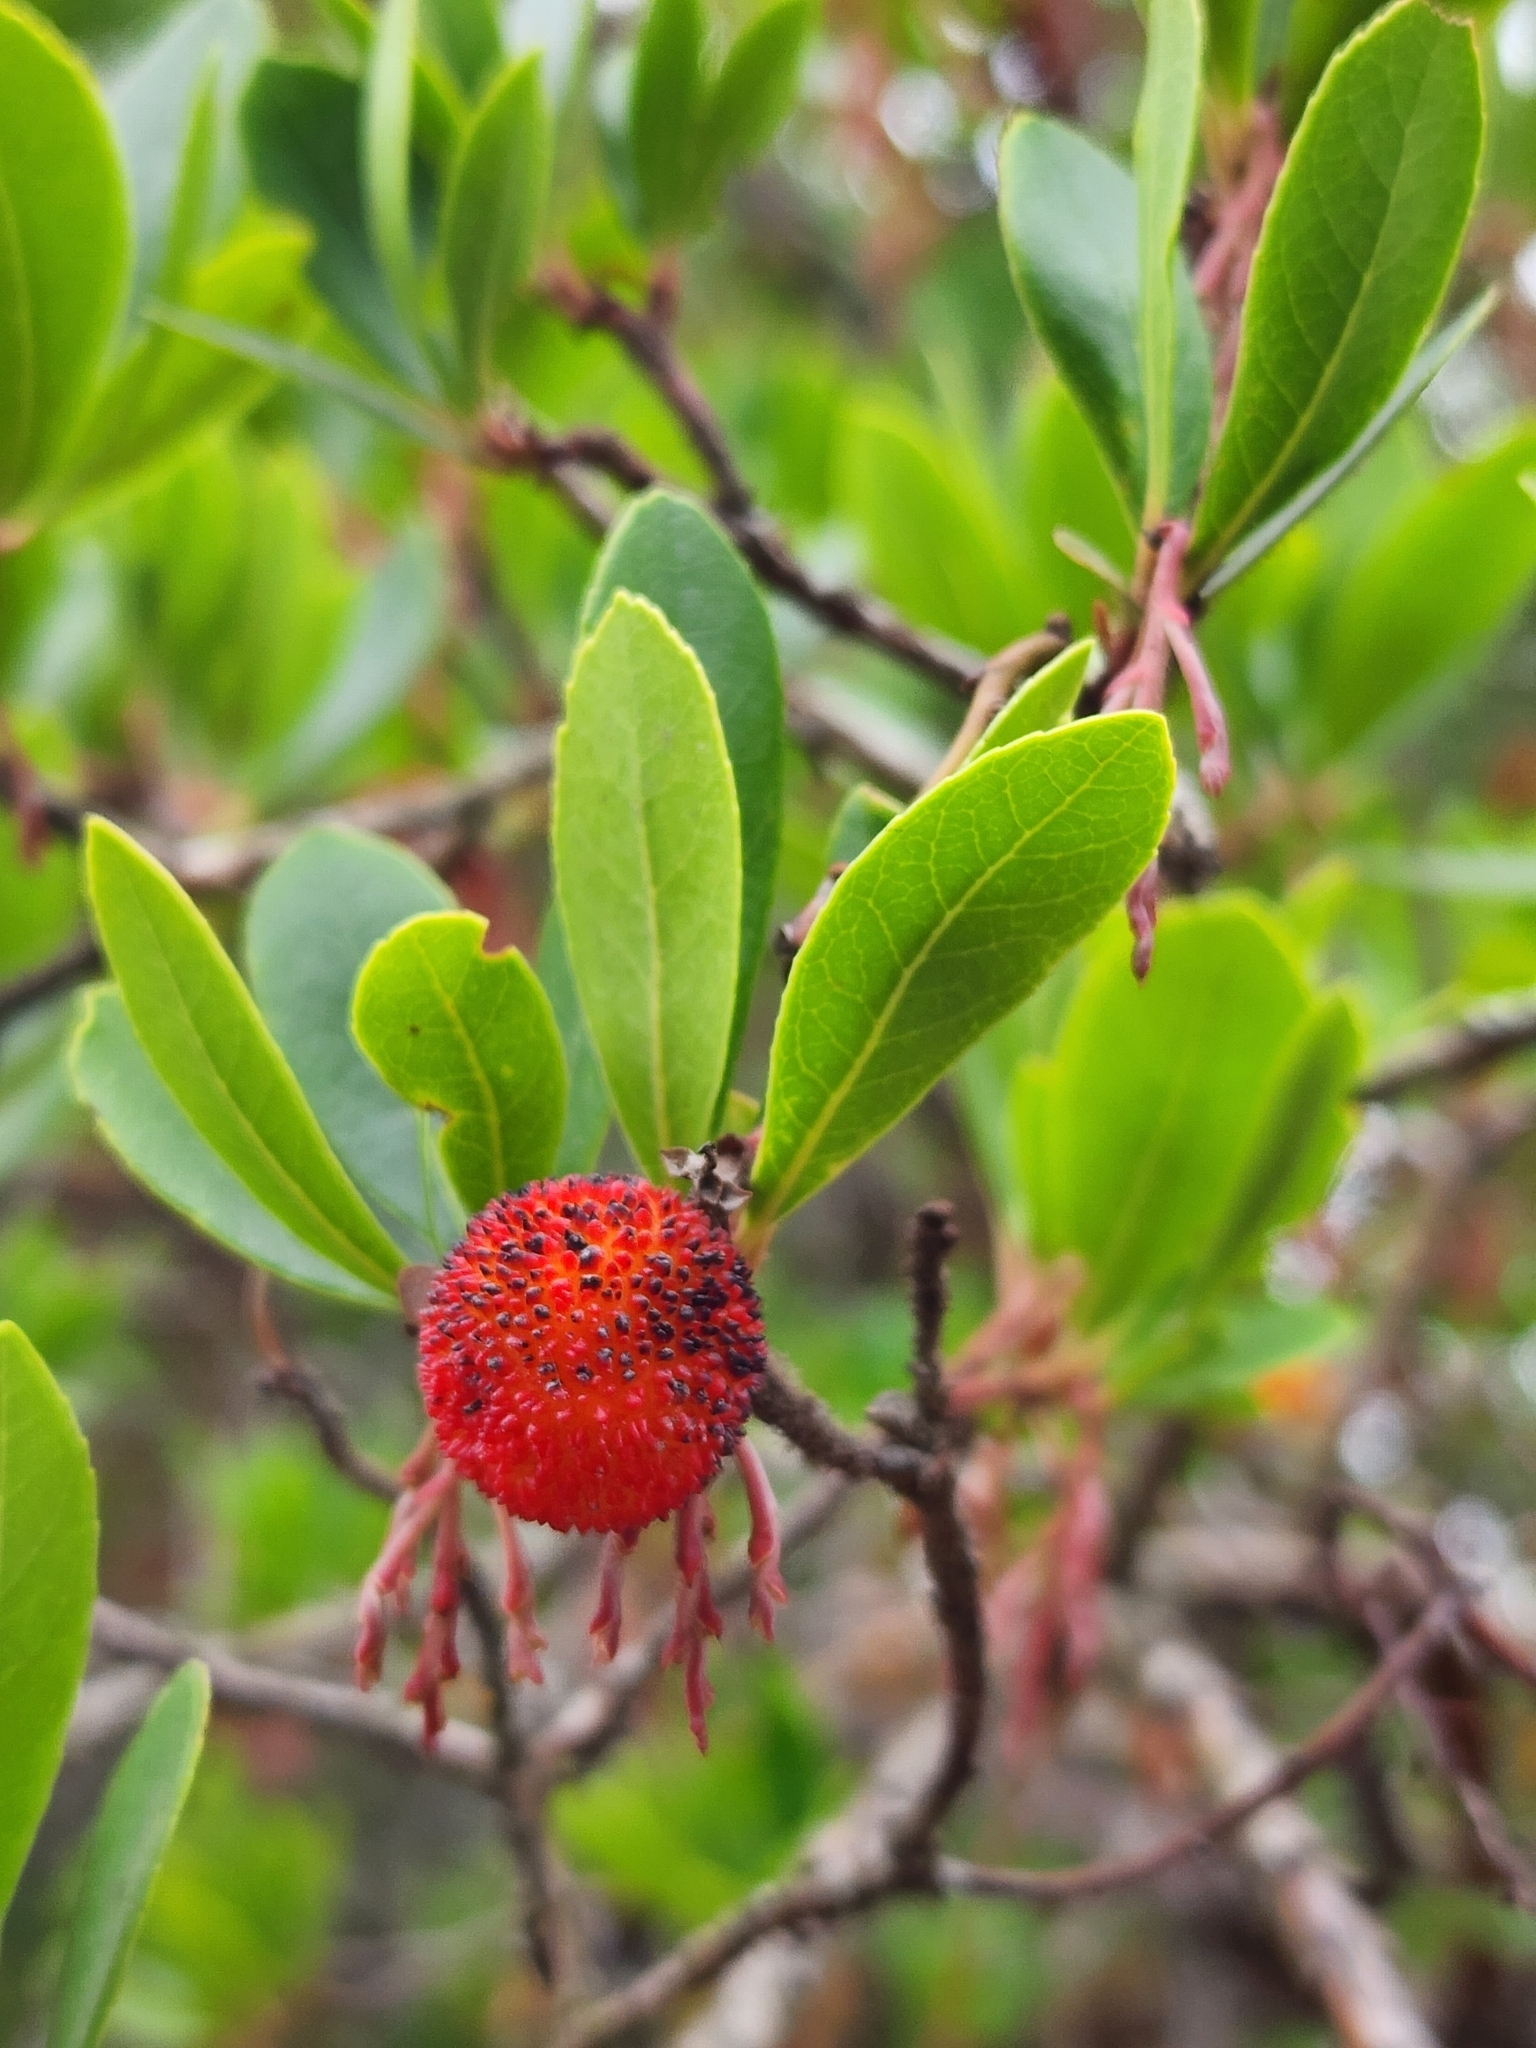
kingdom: Plantae
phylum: Tracheophyta
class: Magnoliopsida
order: Ericales
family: Ericaceae
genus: Arbutus
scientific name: Arbutus unedo
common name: Strawberry-tree
